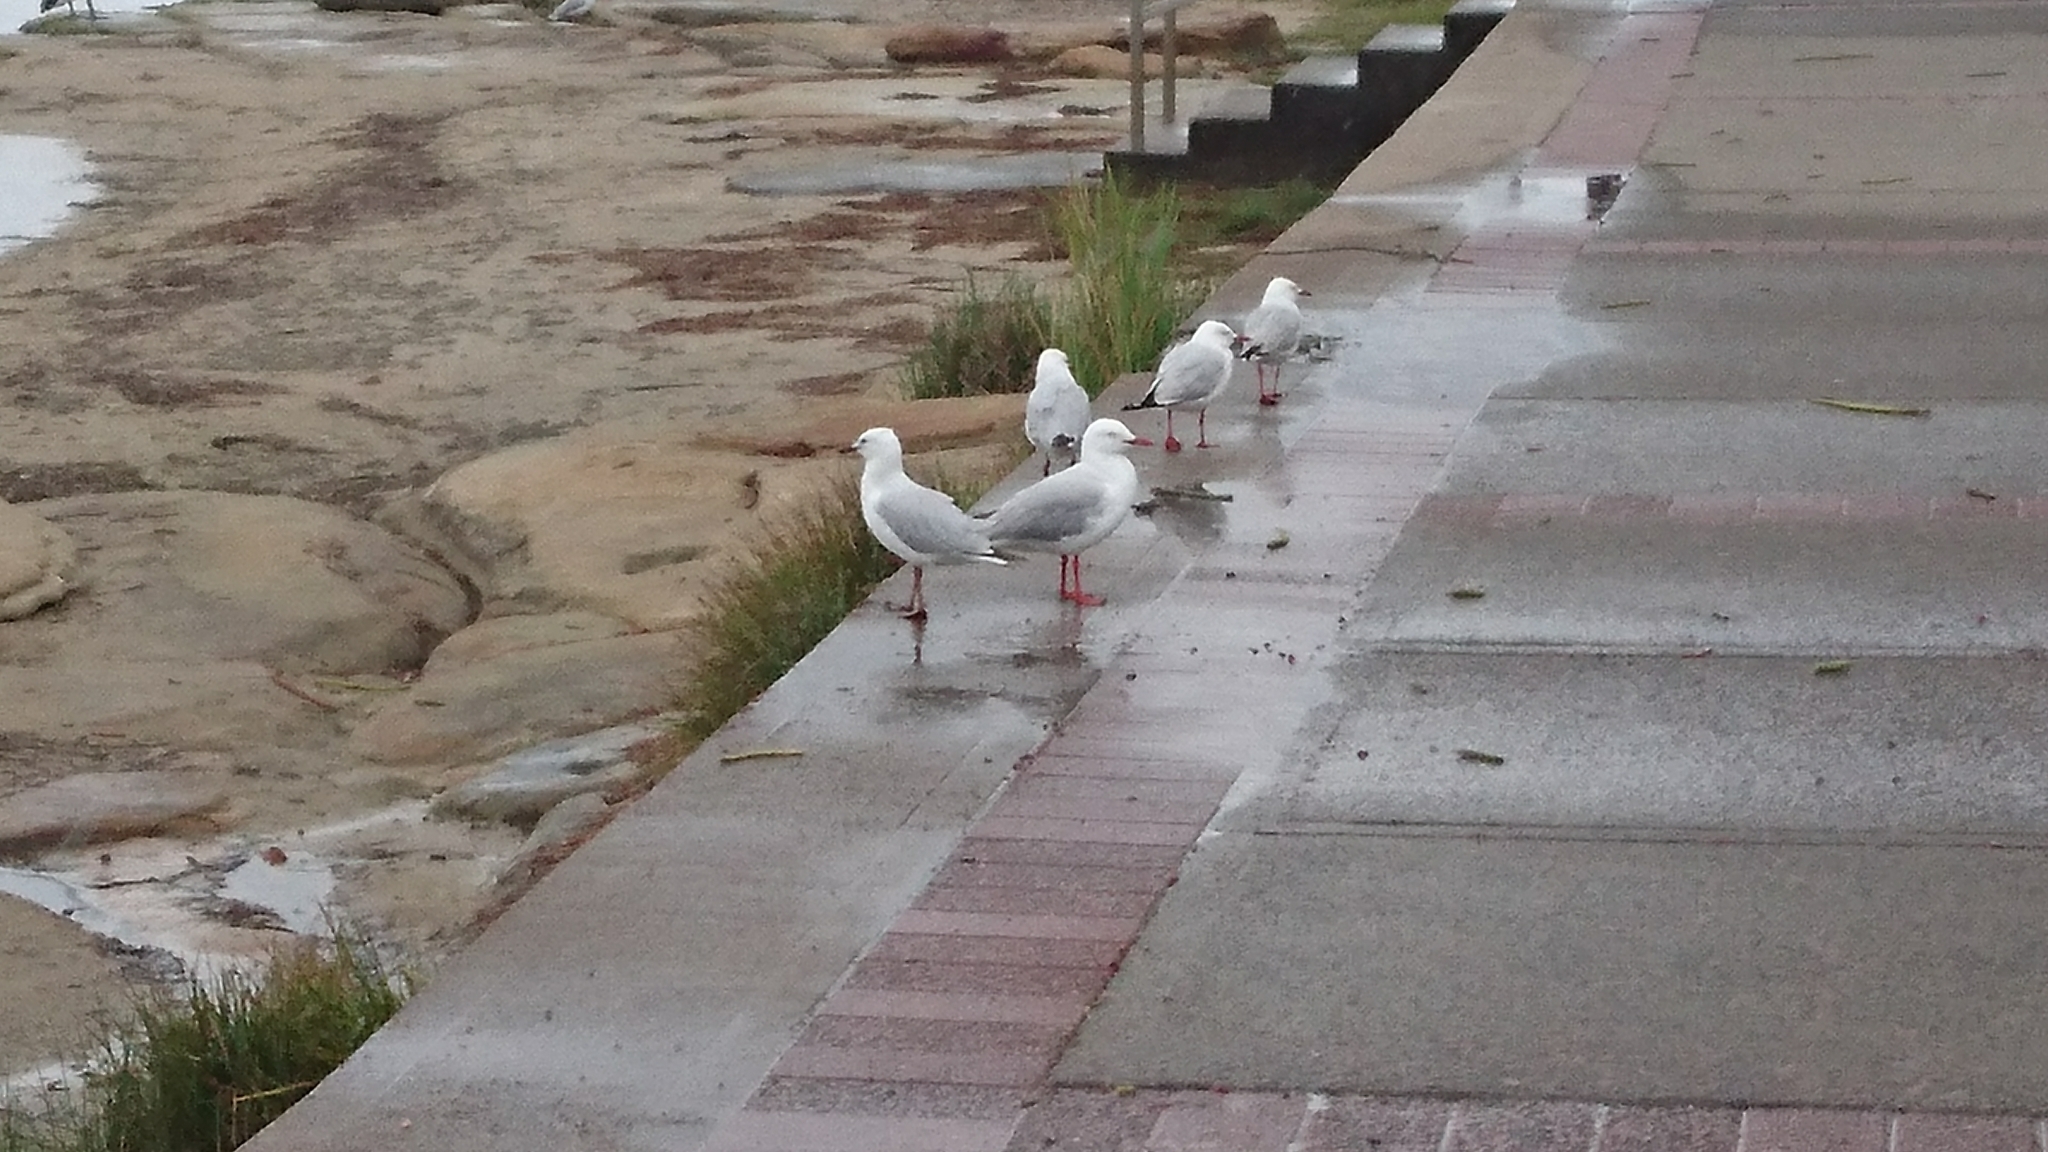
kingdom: Animalia
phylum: Chordata
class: Aves
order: Charadriiformes
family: Laridae
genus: Chroicocephalus
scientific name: Chroicocephalus novaehollandiae
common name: Silver gull
